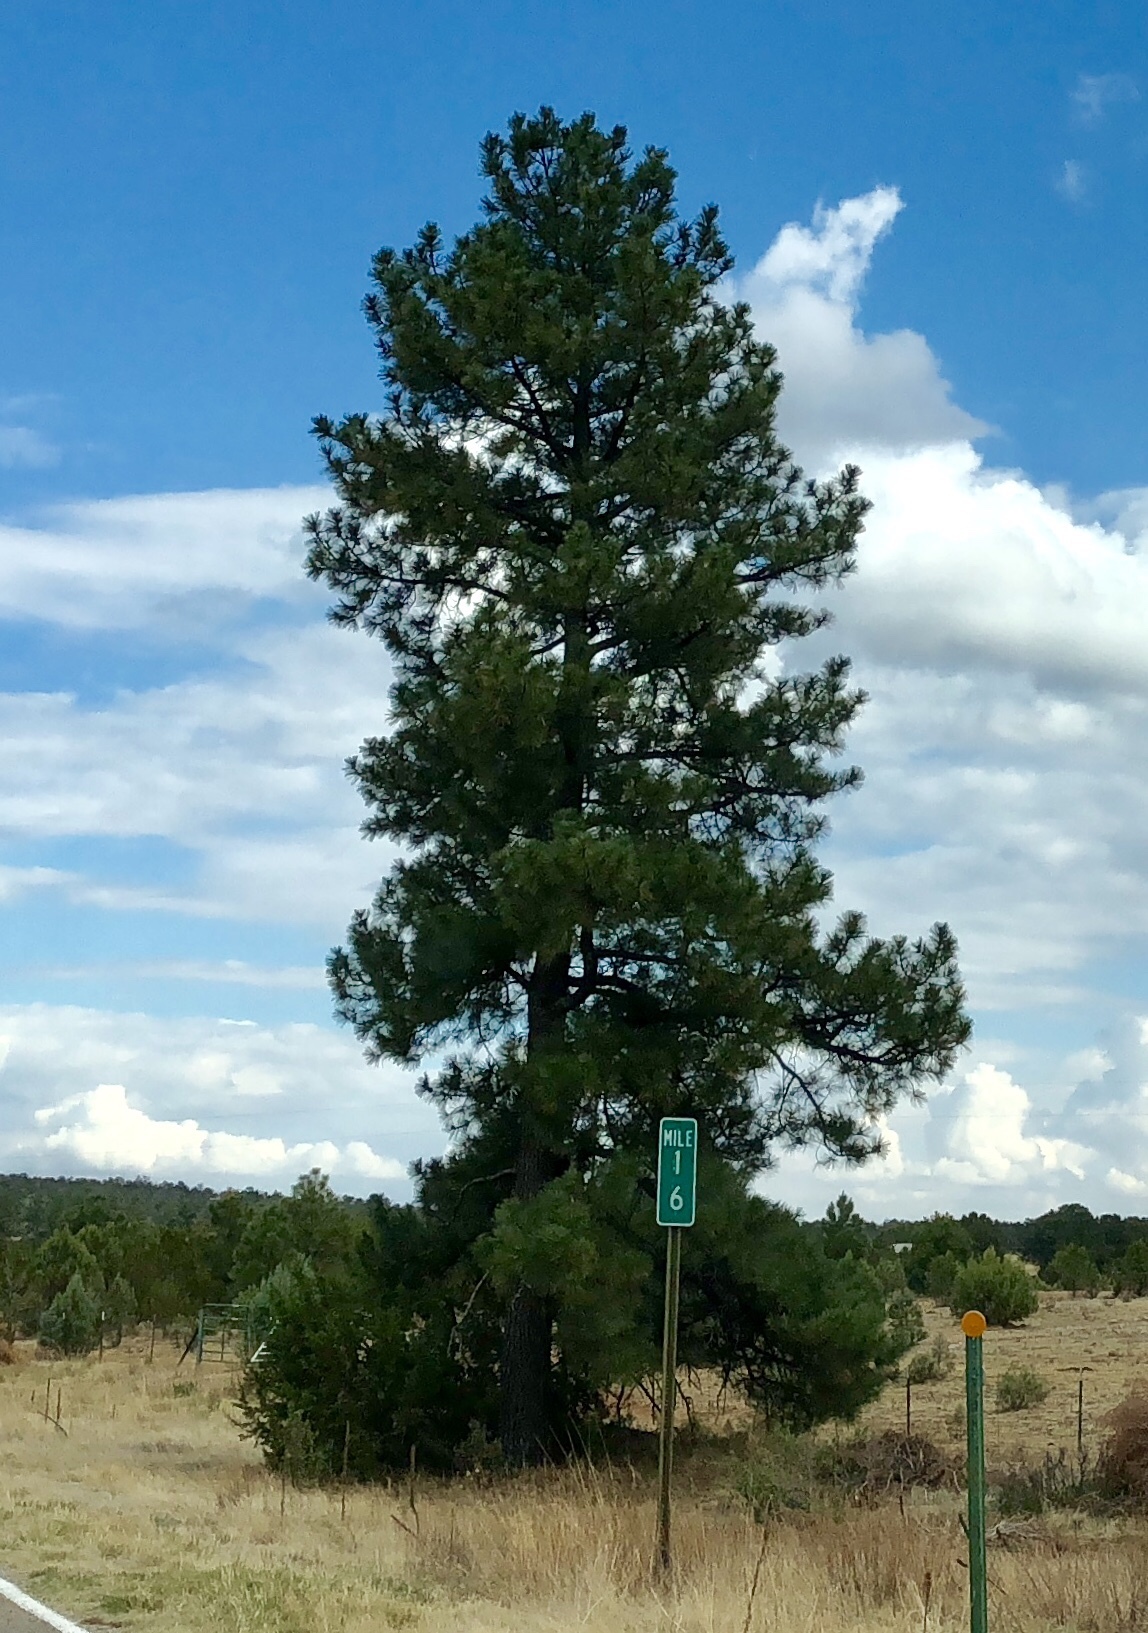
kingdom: Plantae
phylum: Tracheophyta
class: Pinopsida
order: Pinales
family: Pinaceae
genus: Pinus
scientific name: Pinus ponderosa
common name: Western yellow-pine
